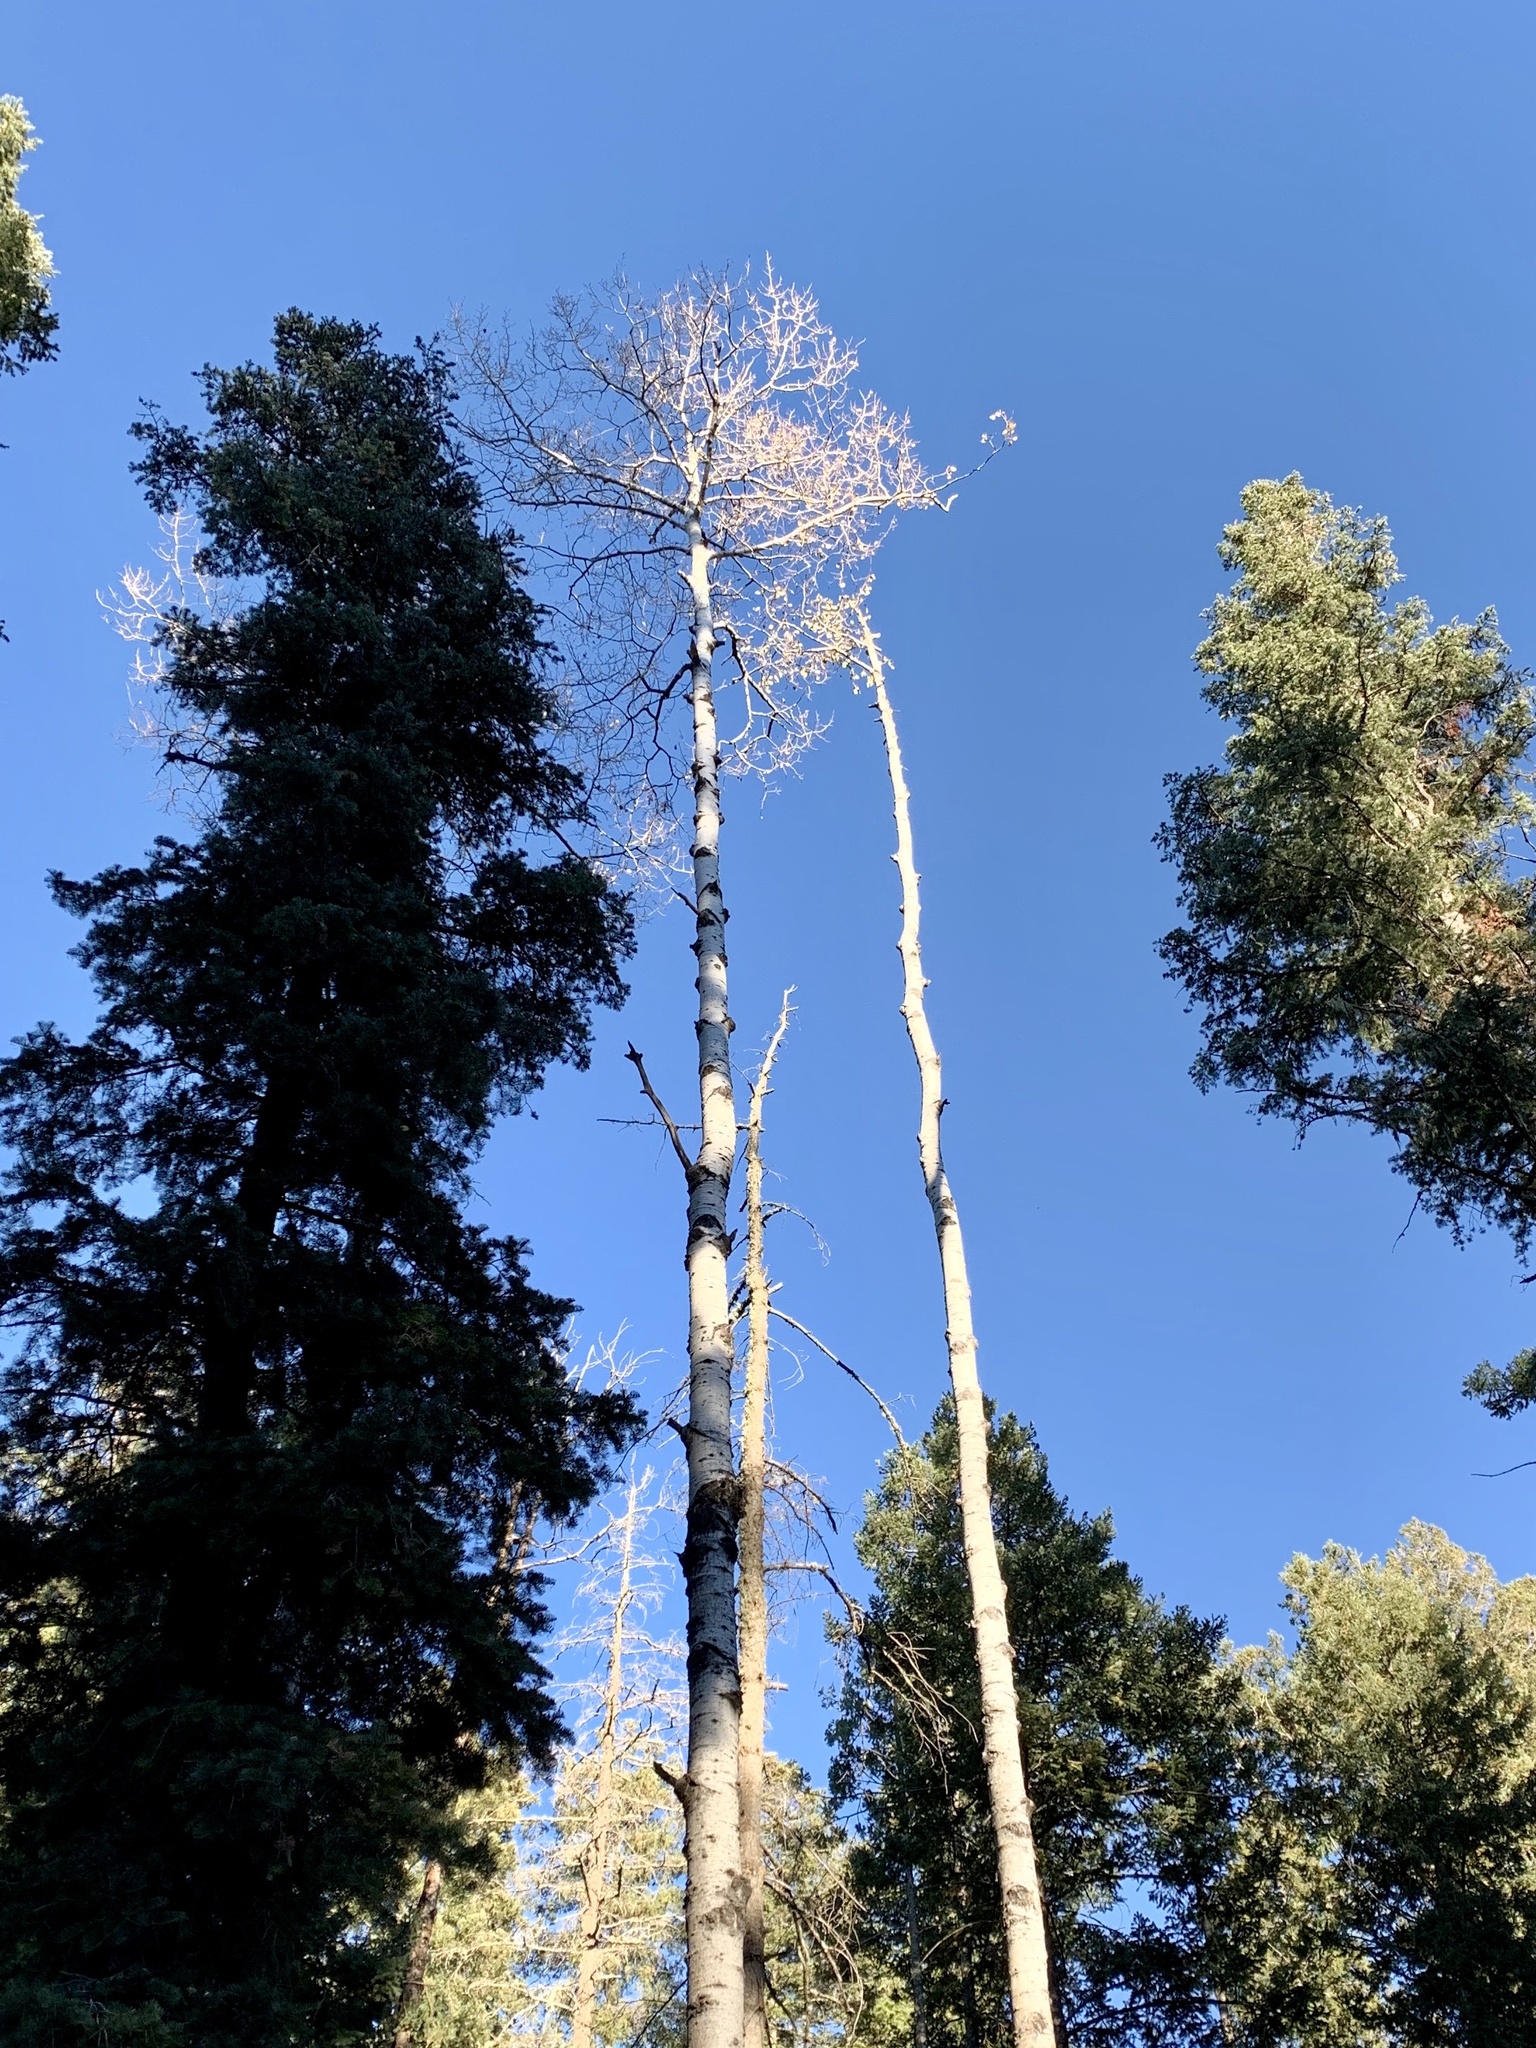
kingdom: Plantae
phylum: Tracheophyta
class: Magnoliopsida
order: Malpighiales
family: Salicaceae
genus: Populus
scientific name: Populus tremuloides
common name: Quaking aspen
